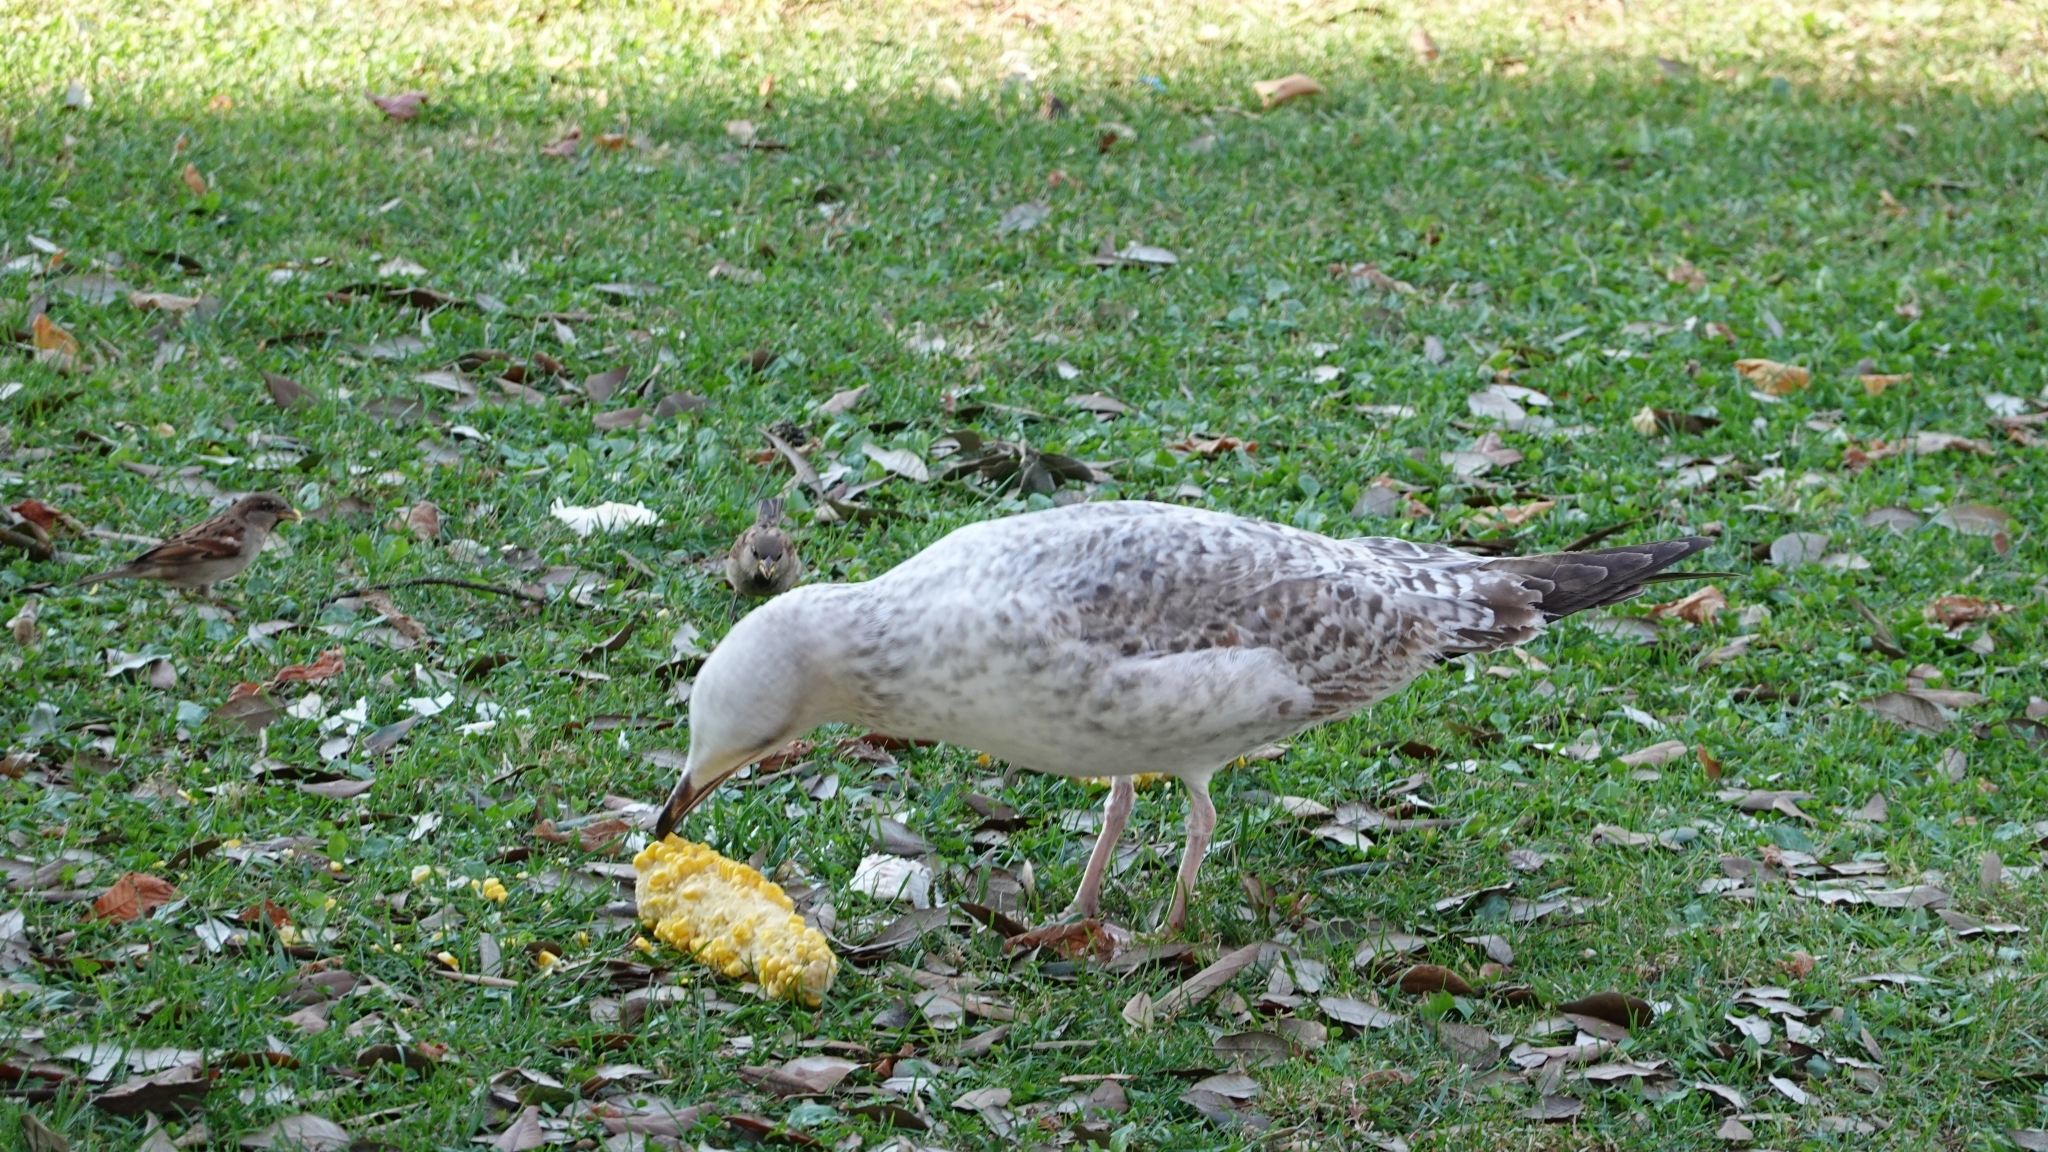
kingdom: Animalia
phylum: Chordata
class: Aves
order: Charadriiformes
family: Laridae
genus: Larus
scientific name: Larus michahellis
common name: Yellow-legged gull
